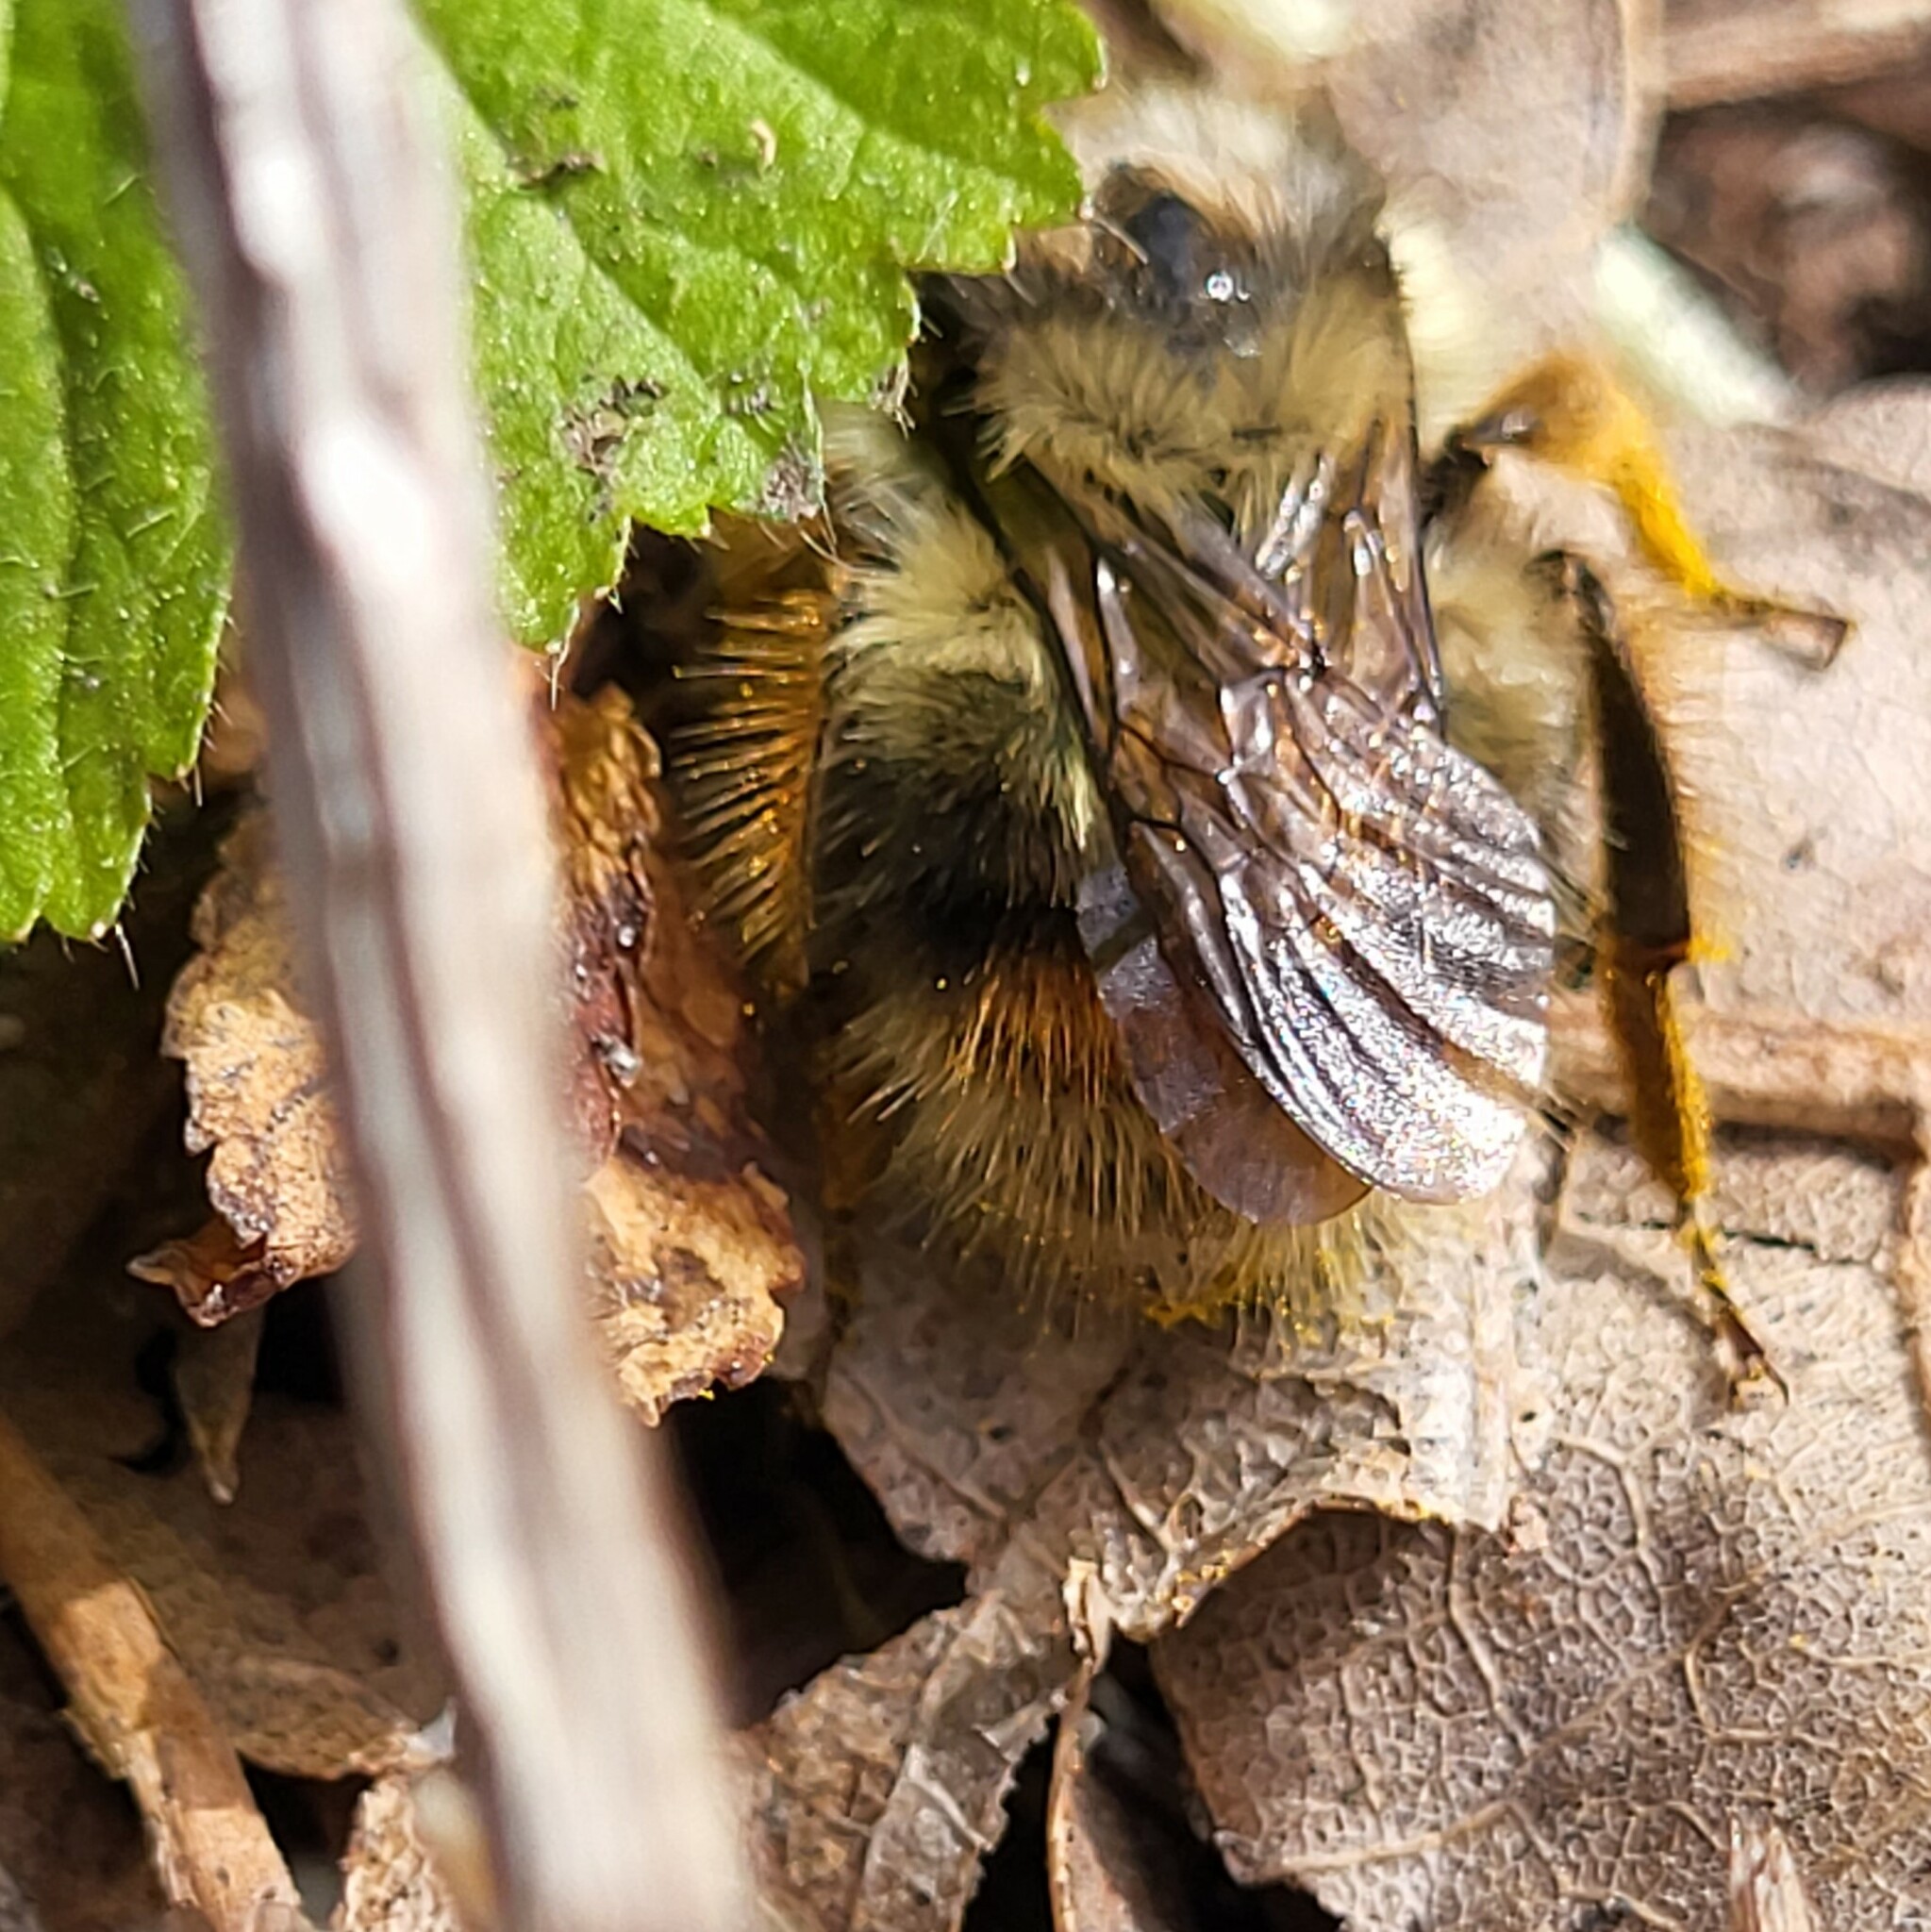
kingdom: Animalia
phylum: Arthropoda
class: Insecta
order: Hymenoptera
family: Apidae
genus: Bombus
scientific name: Bombus mixtus
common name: Fuzzy-horned bumble bee
